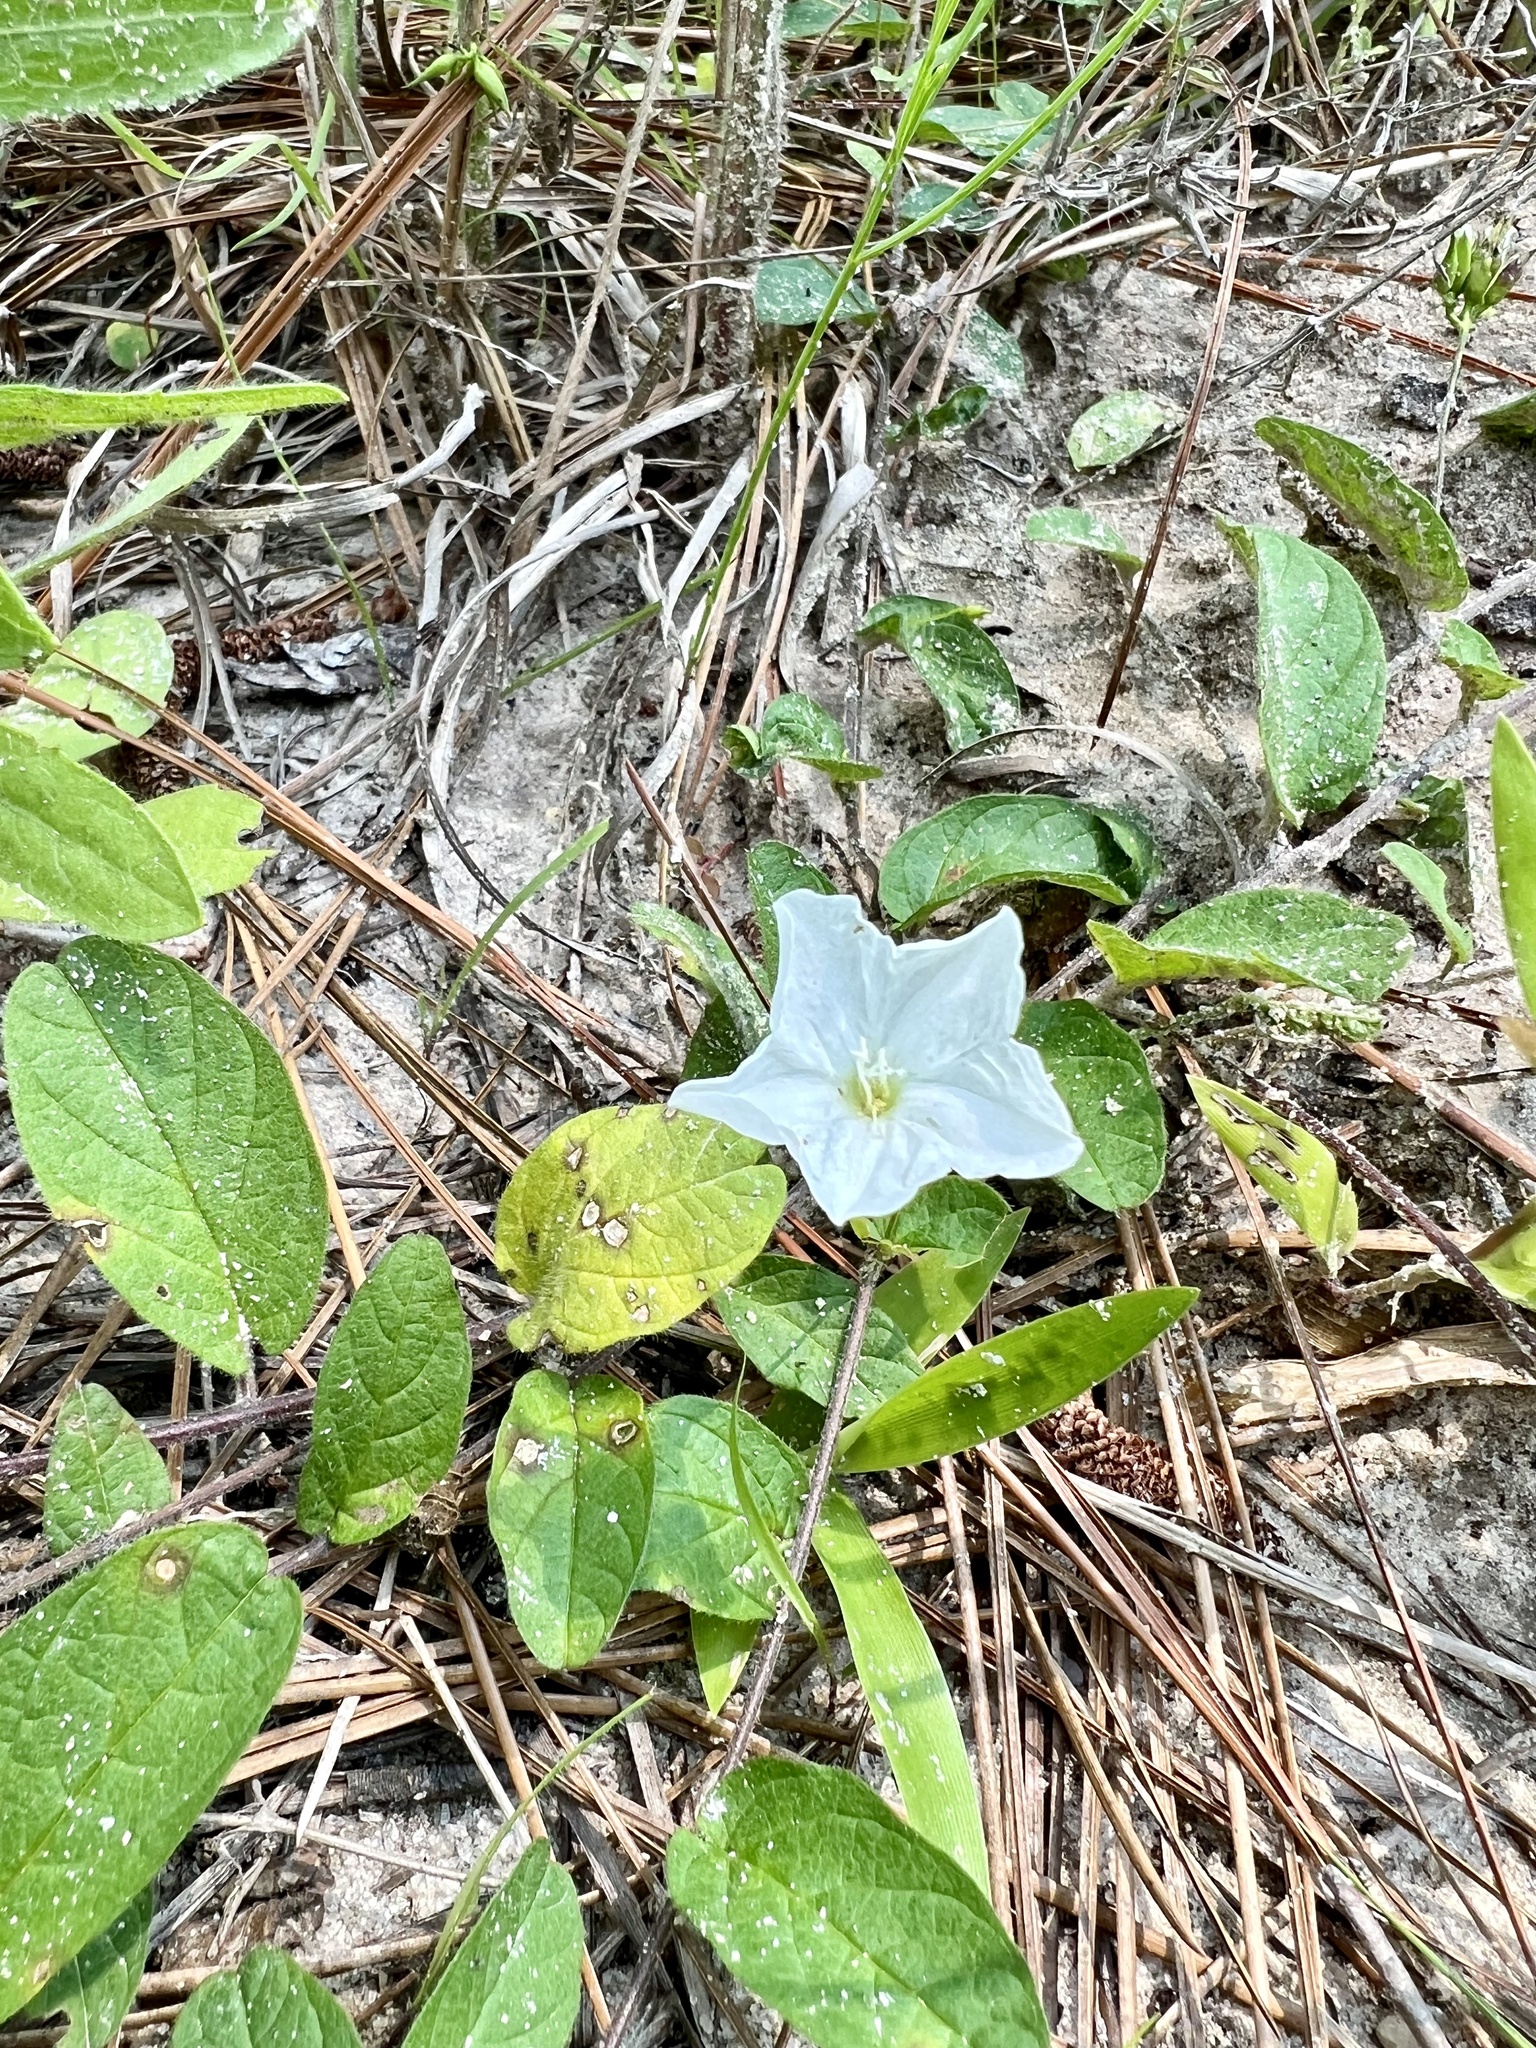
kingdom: Plantae
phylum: Tracheophyta
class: Magnoliopsida
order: Solanales
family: Convolvulaceae
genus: Stylisma
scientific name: Stylisma humistrata
